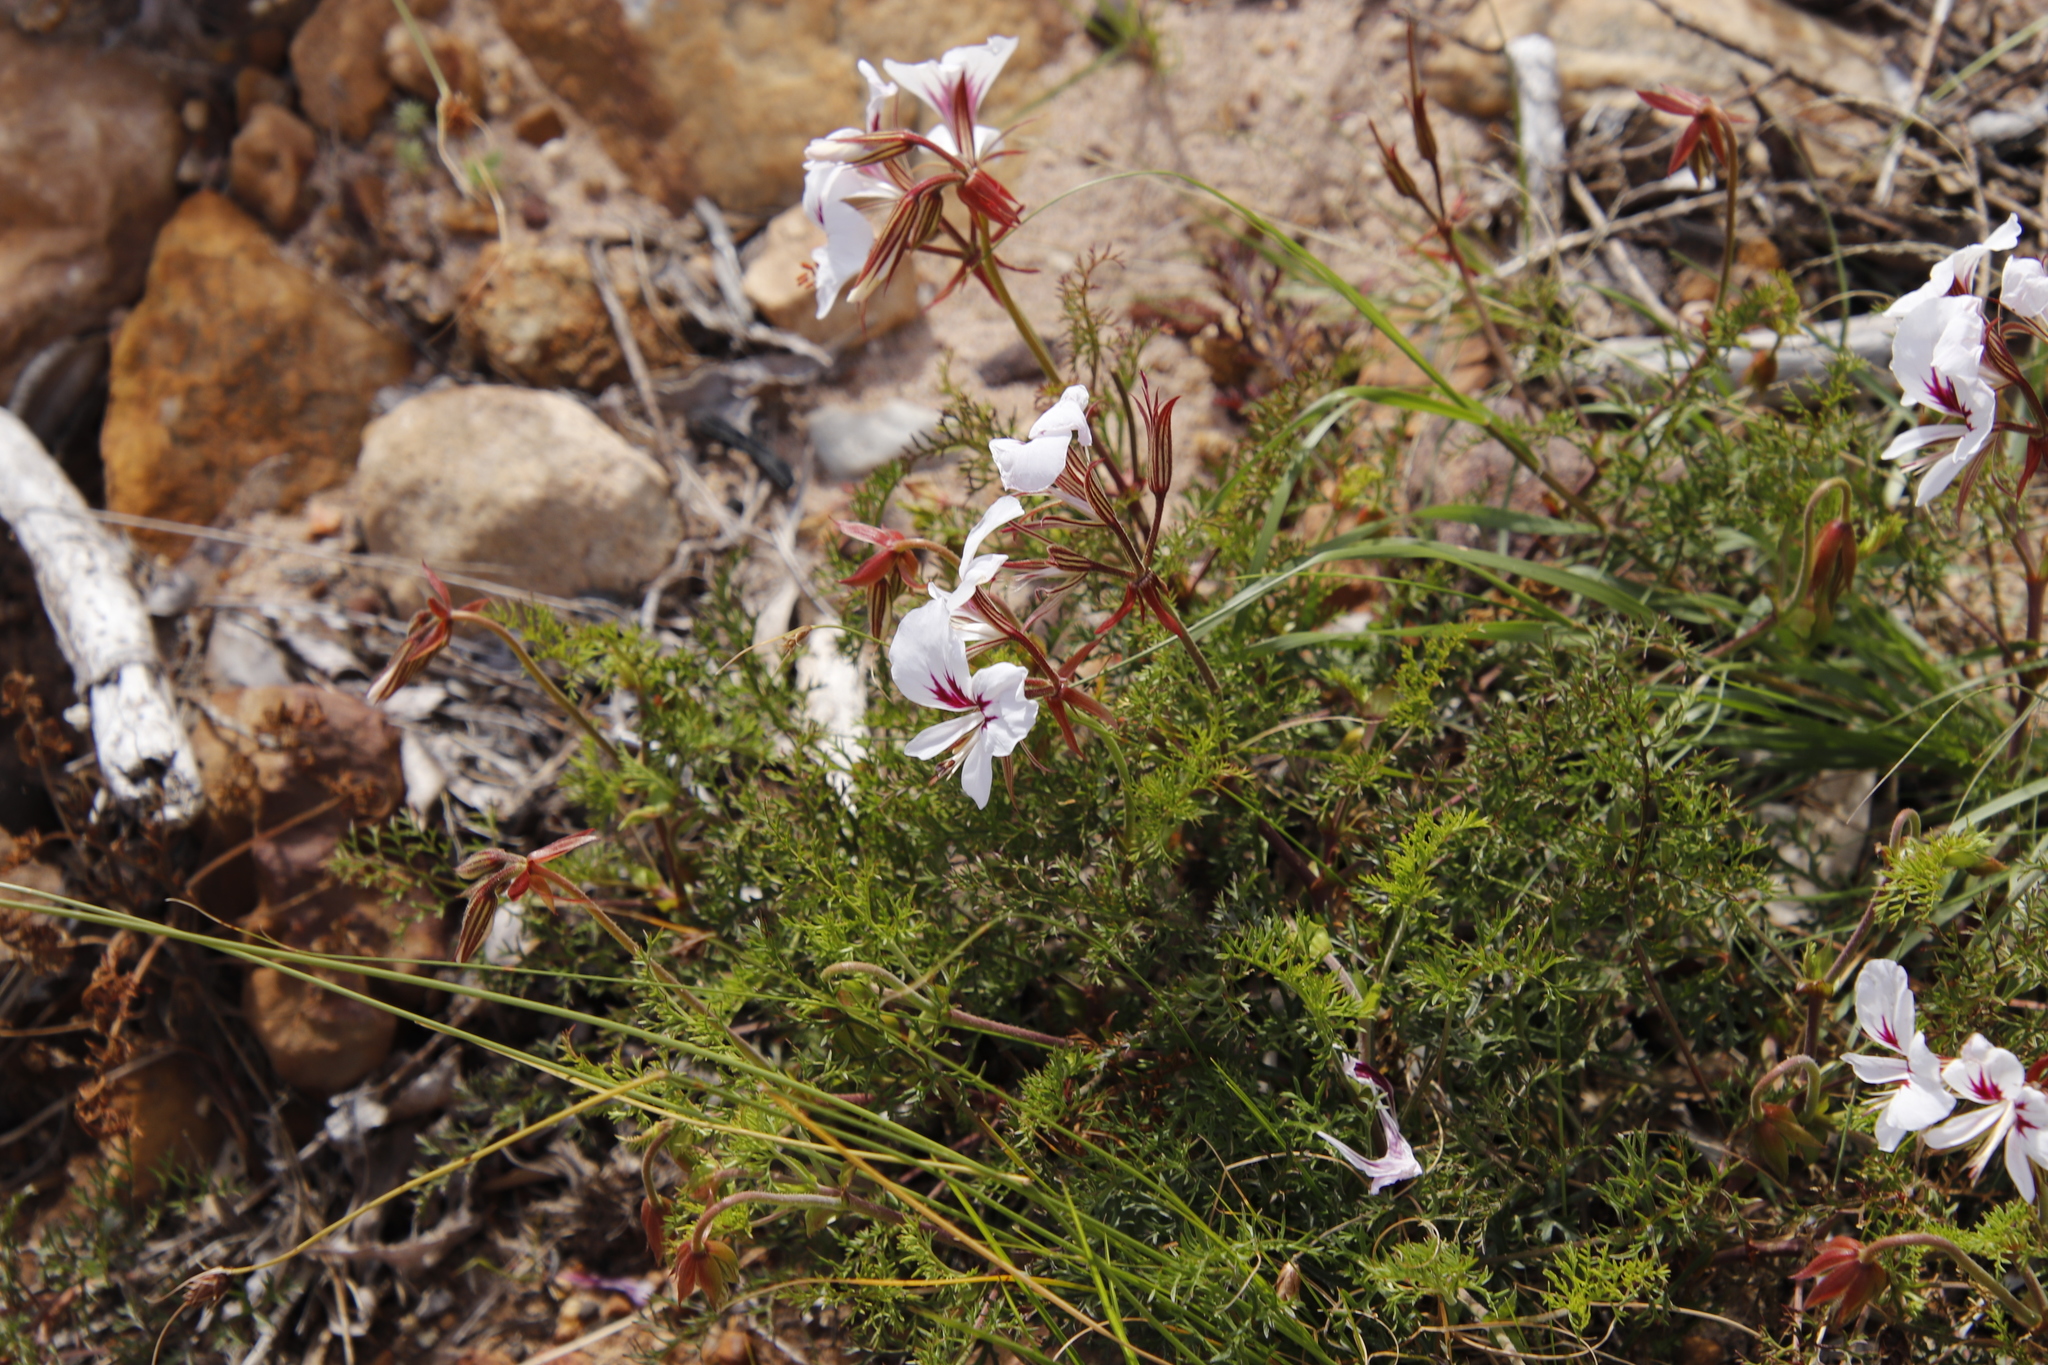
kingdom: Plantae
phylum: Tracheophyta
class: Magnoliopsida
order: Geraniales
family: Geraniaceae
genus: Pelargonium
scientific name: Pelargonium longicaule
